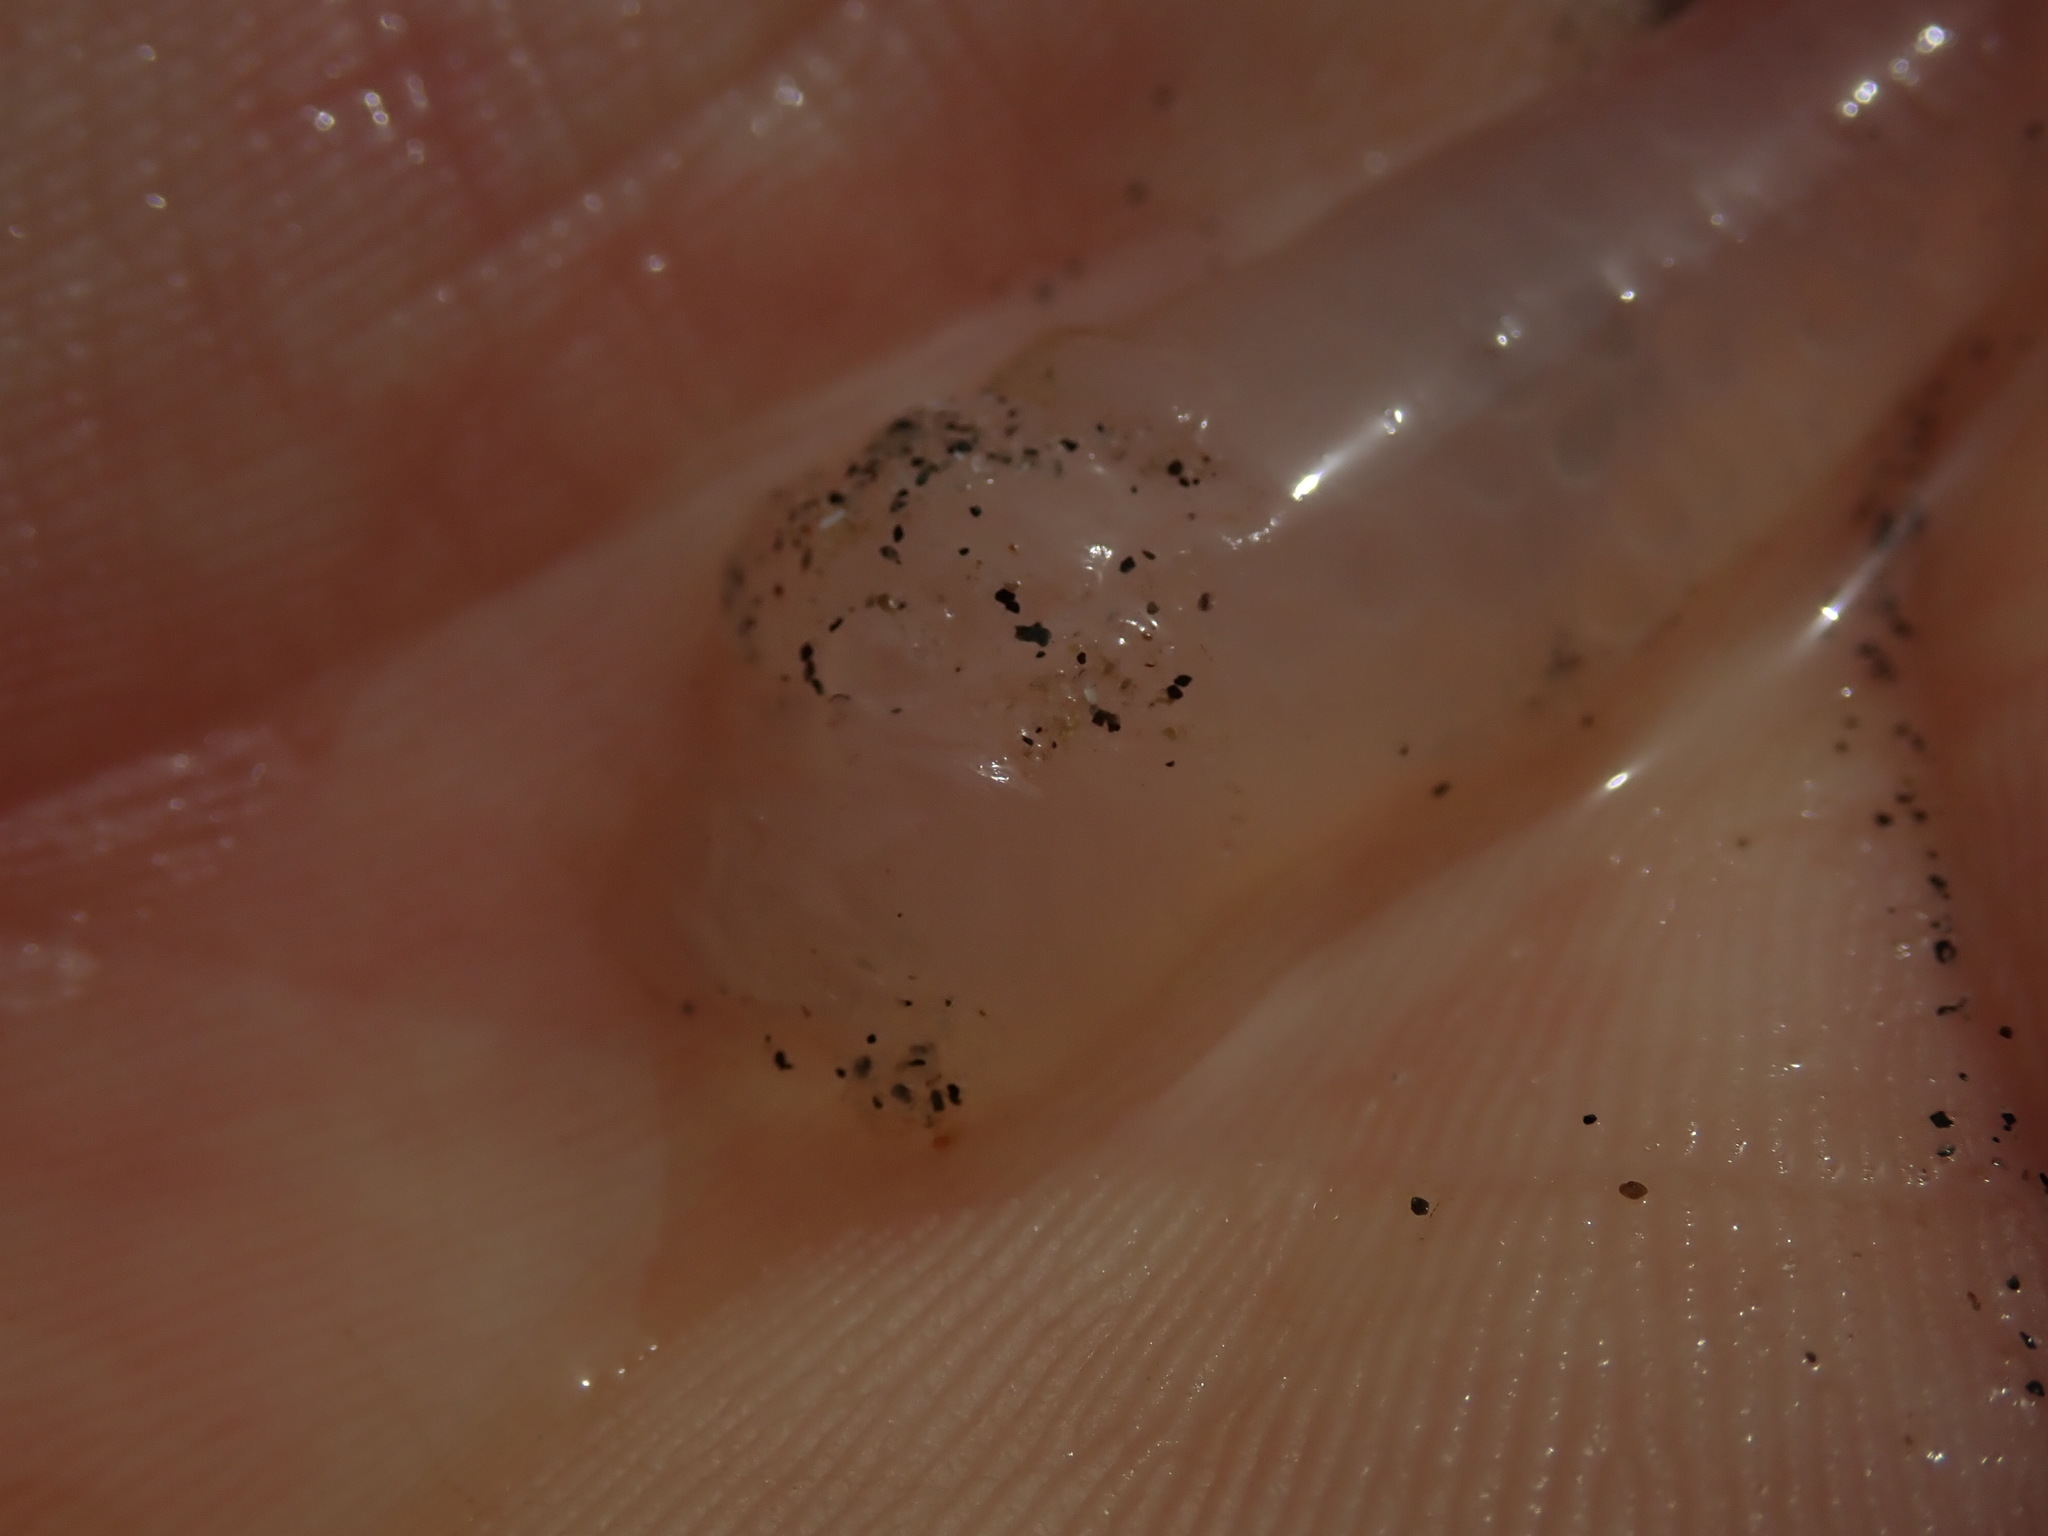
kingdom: Animalia
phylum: Mollusca
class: Cephalopoda
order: Myopsida
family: Loliginidae
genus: Doryteuthis
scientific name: Doryteuthis opalescens
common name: Opalescent inshore squid
